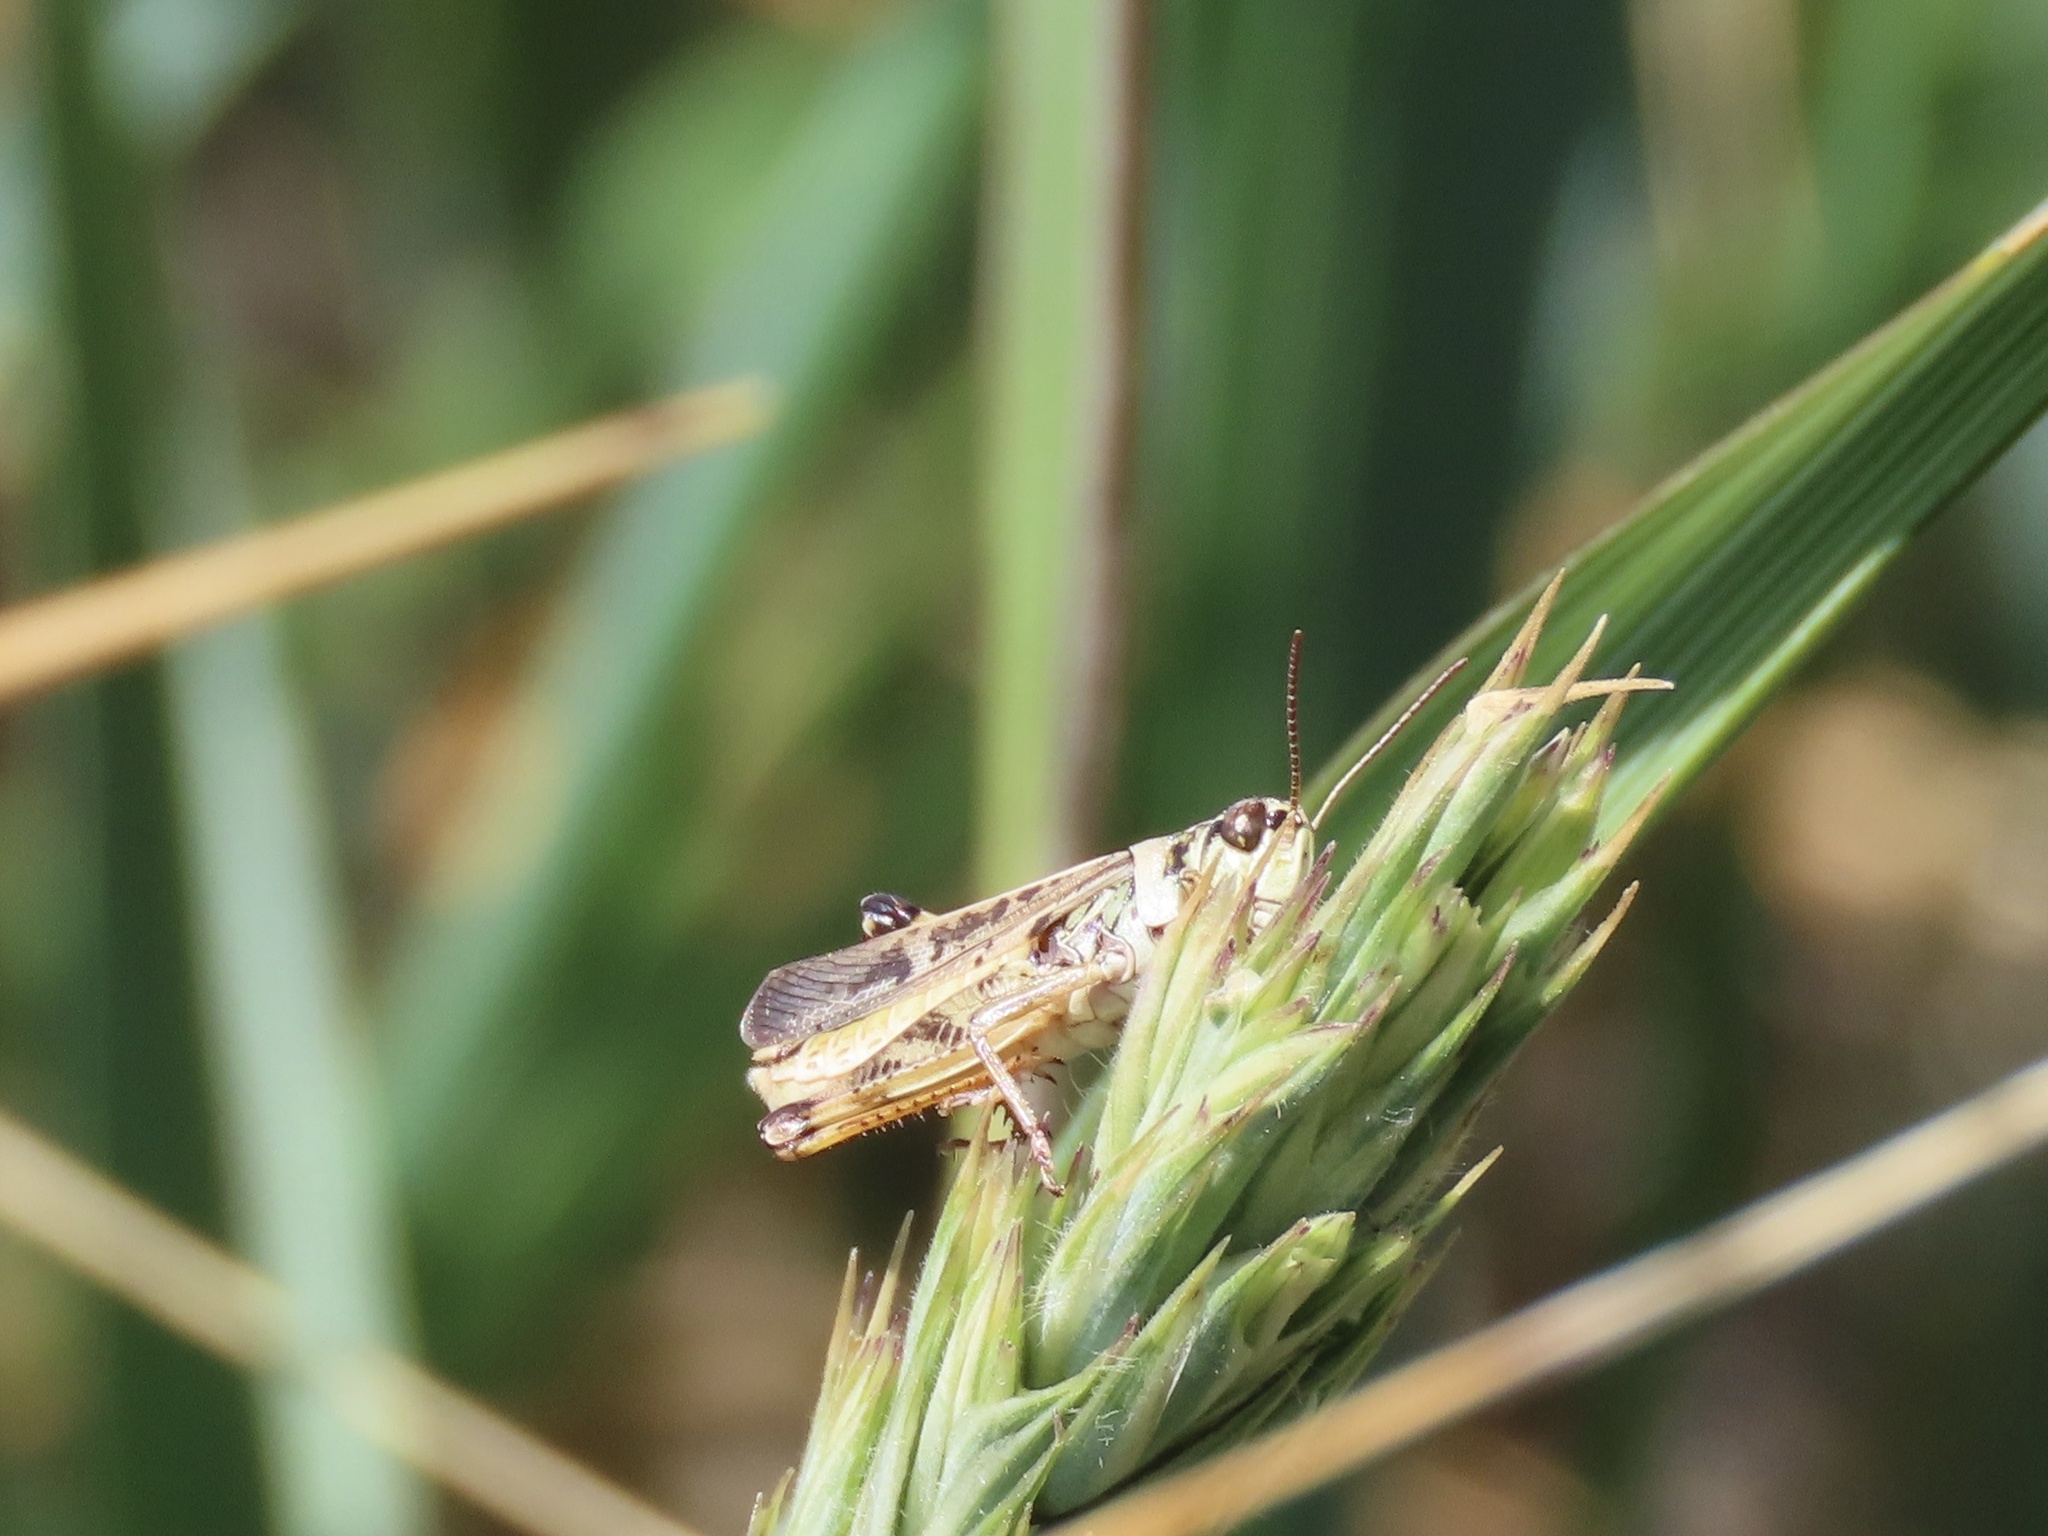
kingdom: Animalia
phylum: Arthropoda
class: Insecta
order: Orthoptera
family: Acrididae
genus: Camnula
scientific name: Camnula pellucida
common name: Clear-winged grasshopper
